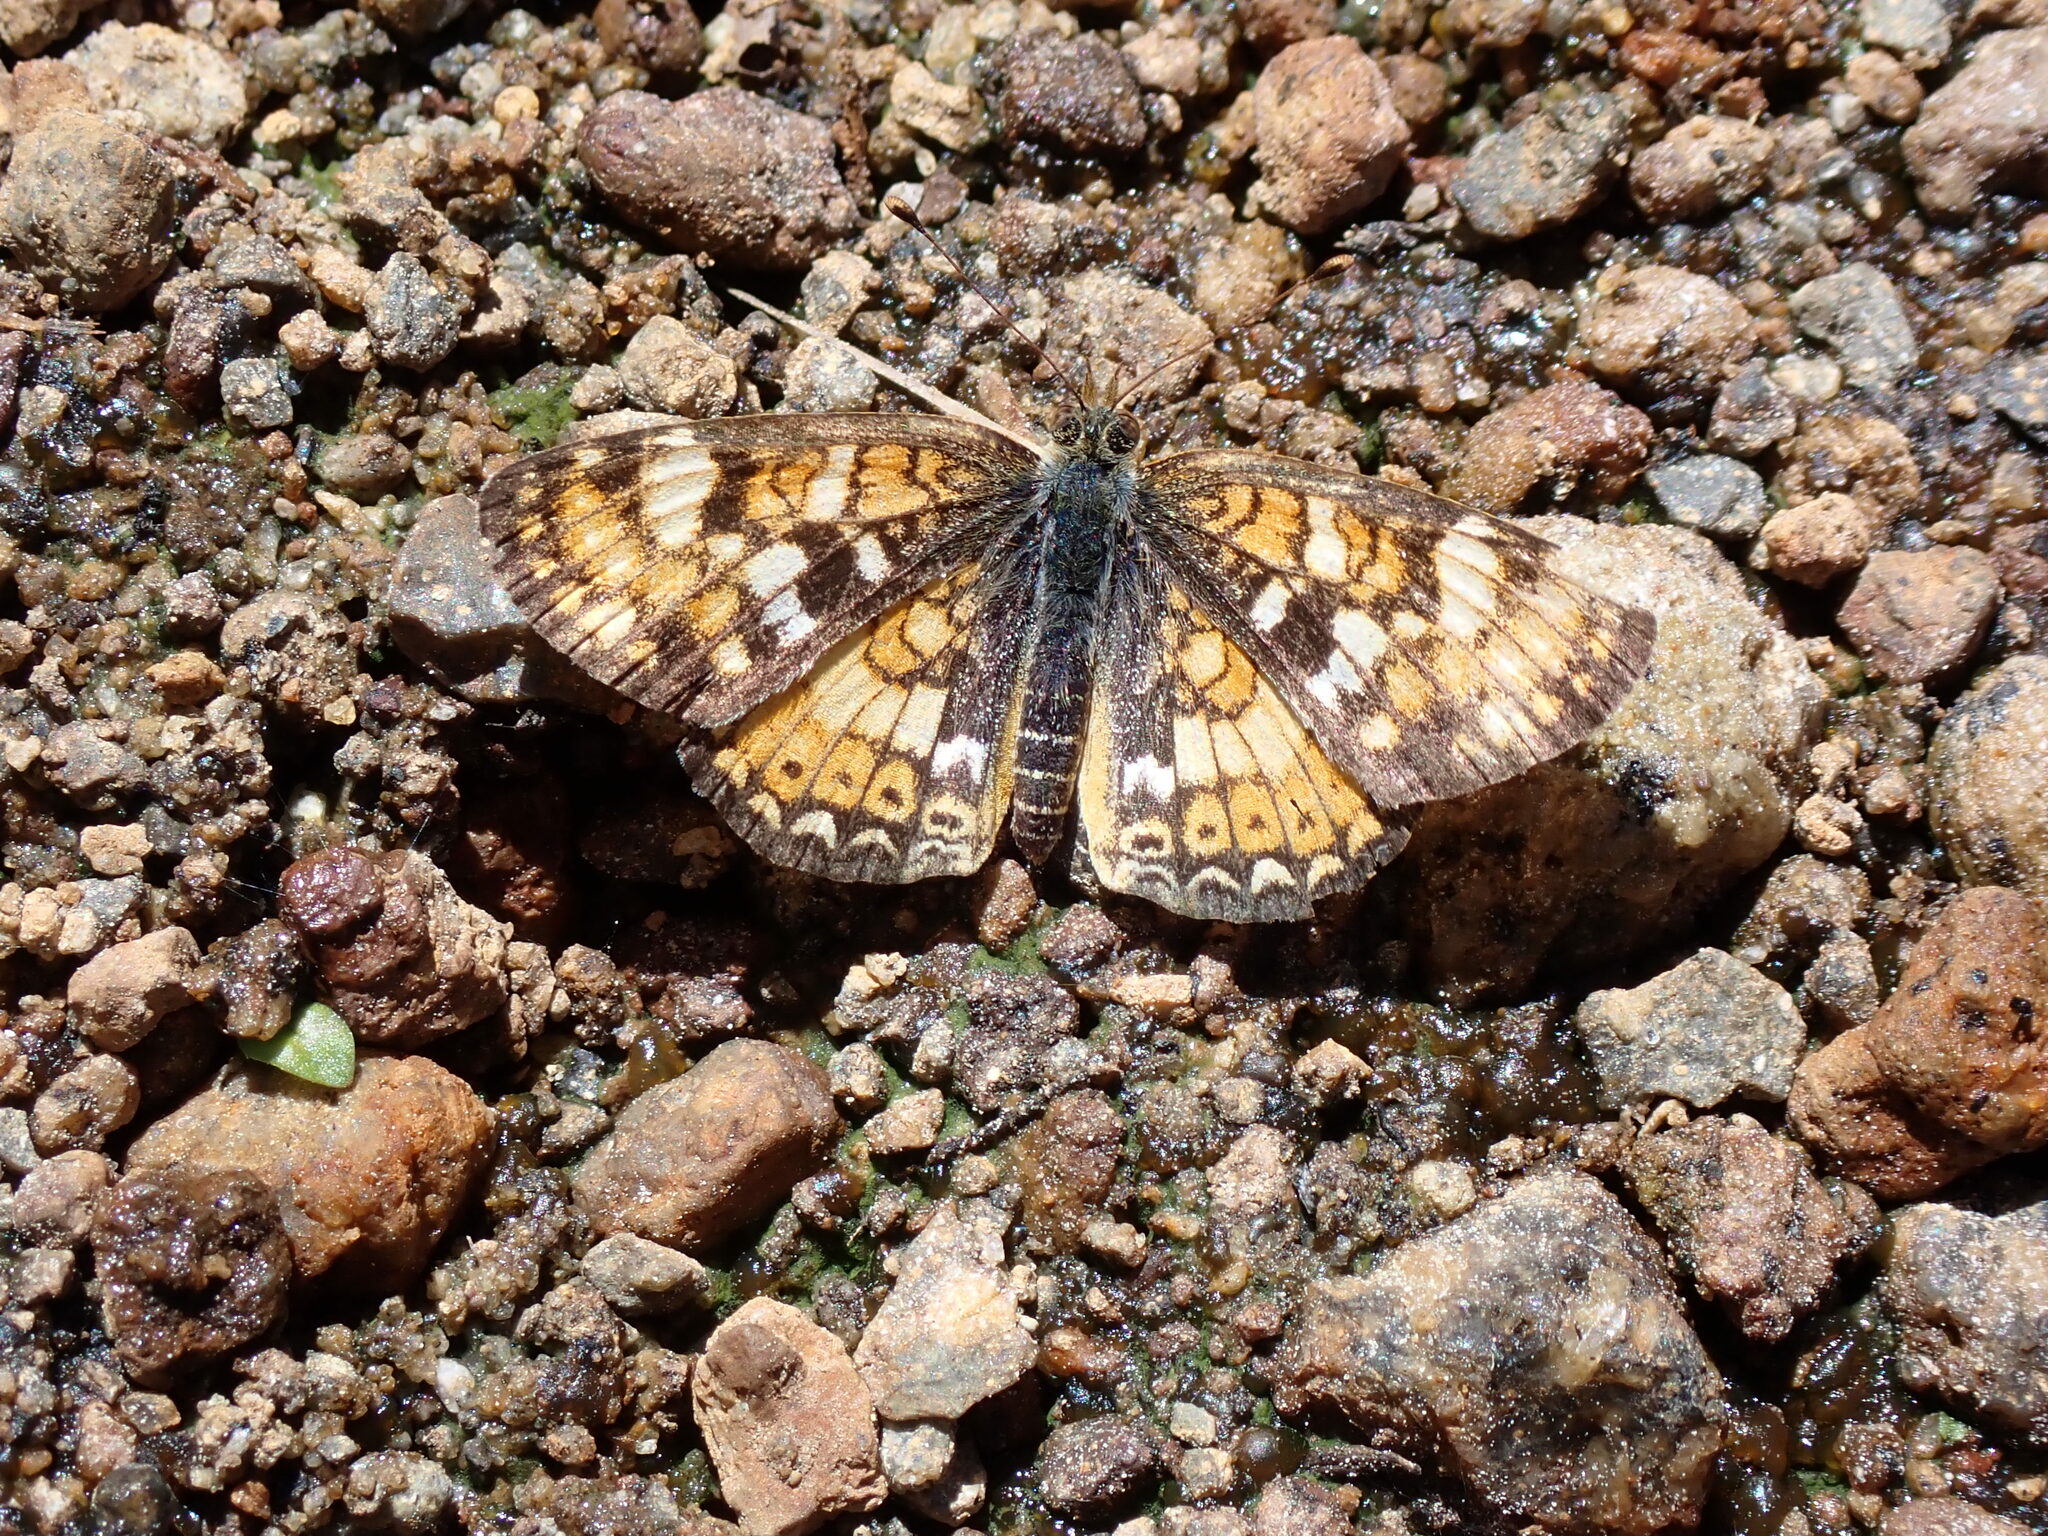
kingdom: Animalia
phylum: Arthropoda
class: Insecta
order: Lepidoptera
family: Nymphalidae
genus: Phyciodes
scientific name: Phyciodes tharos
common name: Pearl crescent
